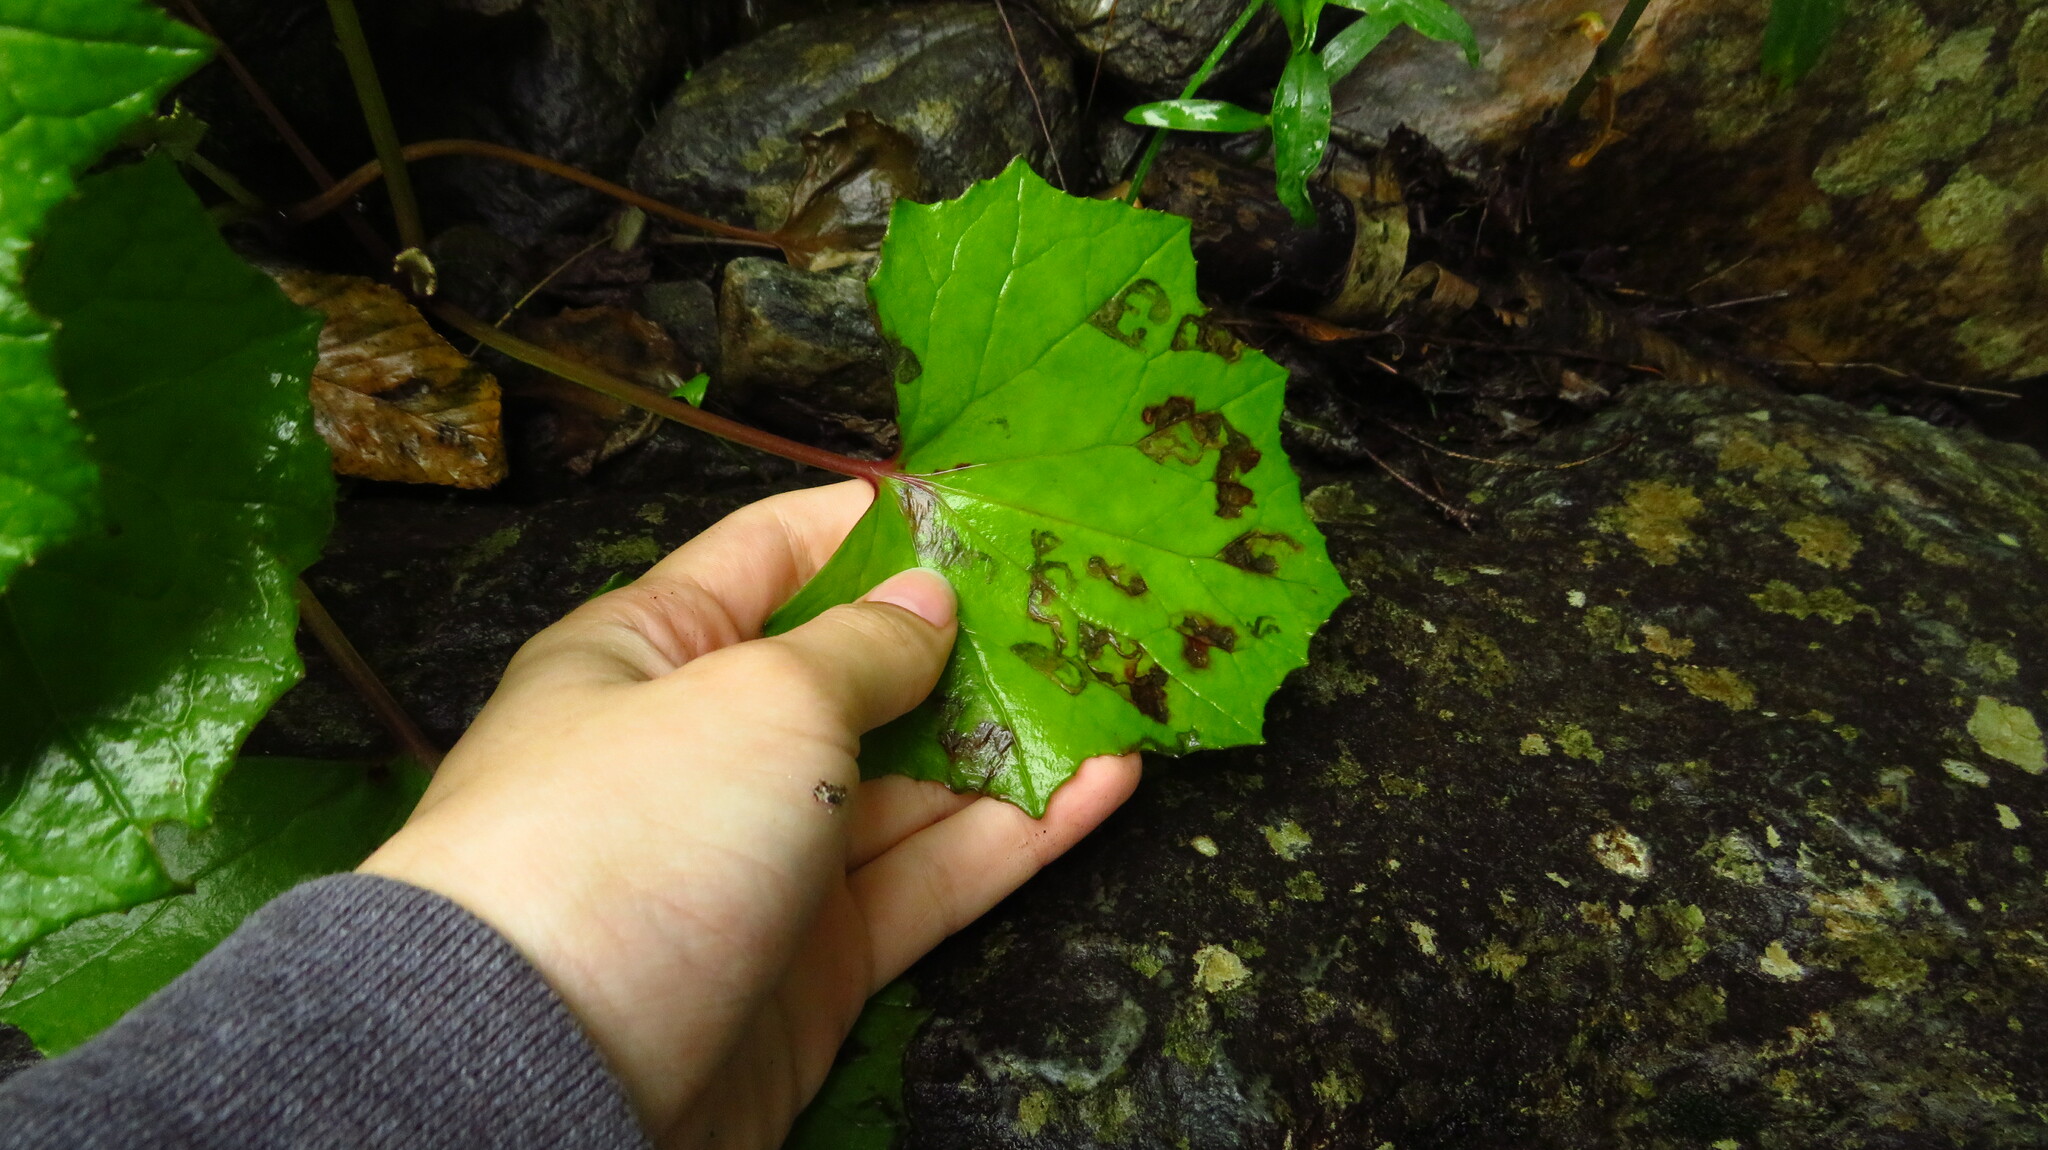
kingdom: Animalia
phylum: Arthropoda
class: Insecta
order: Lepidoptera
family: Gracillariidae
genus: Phyllocnistis
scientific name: Phyllocnistis insignis
